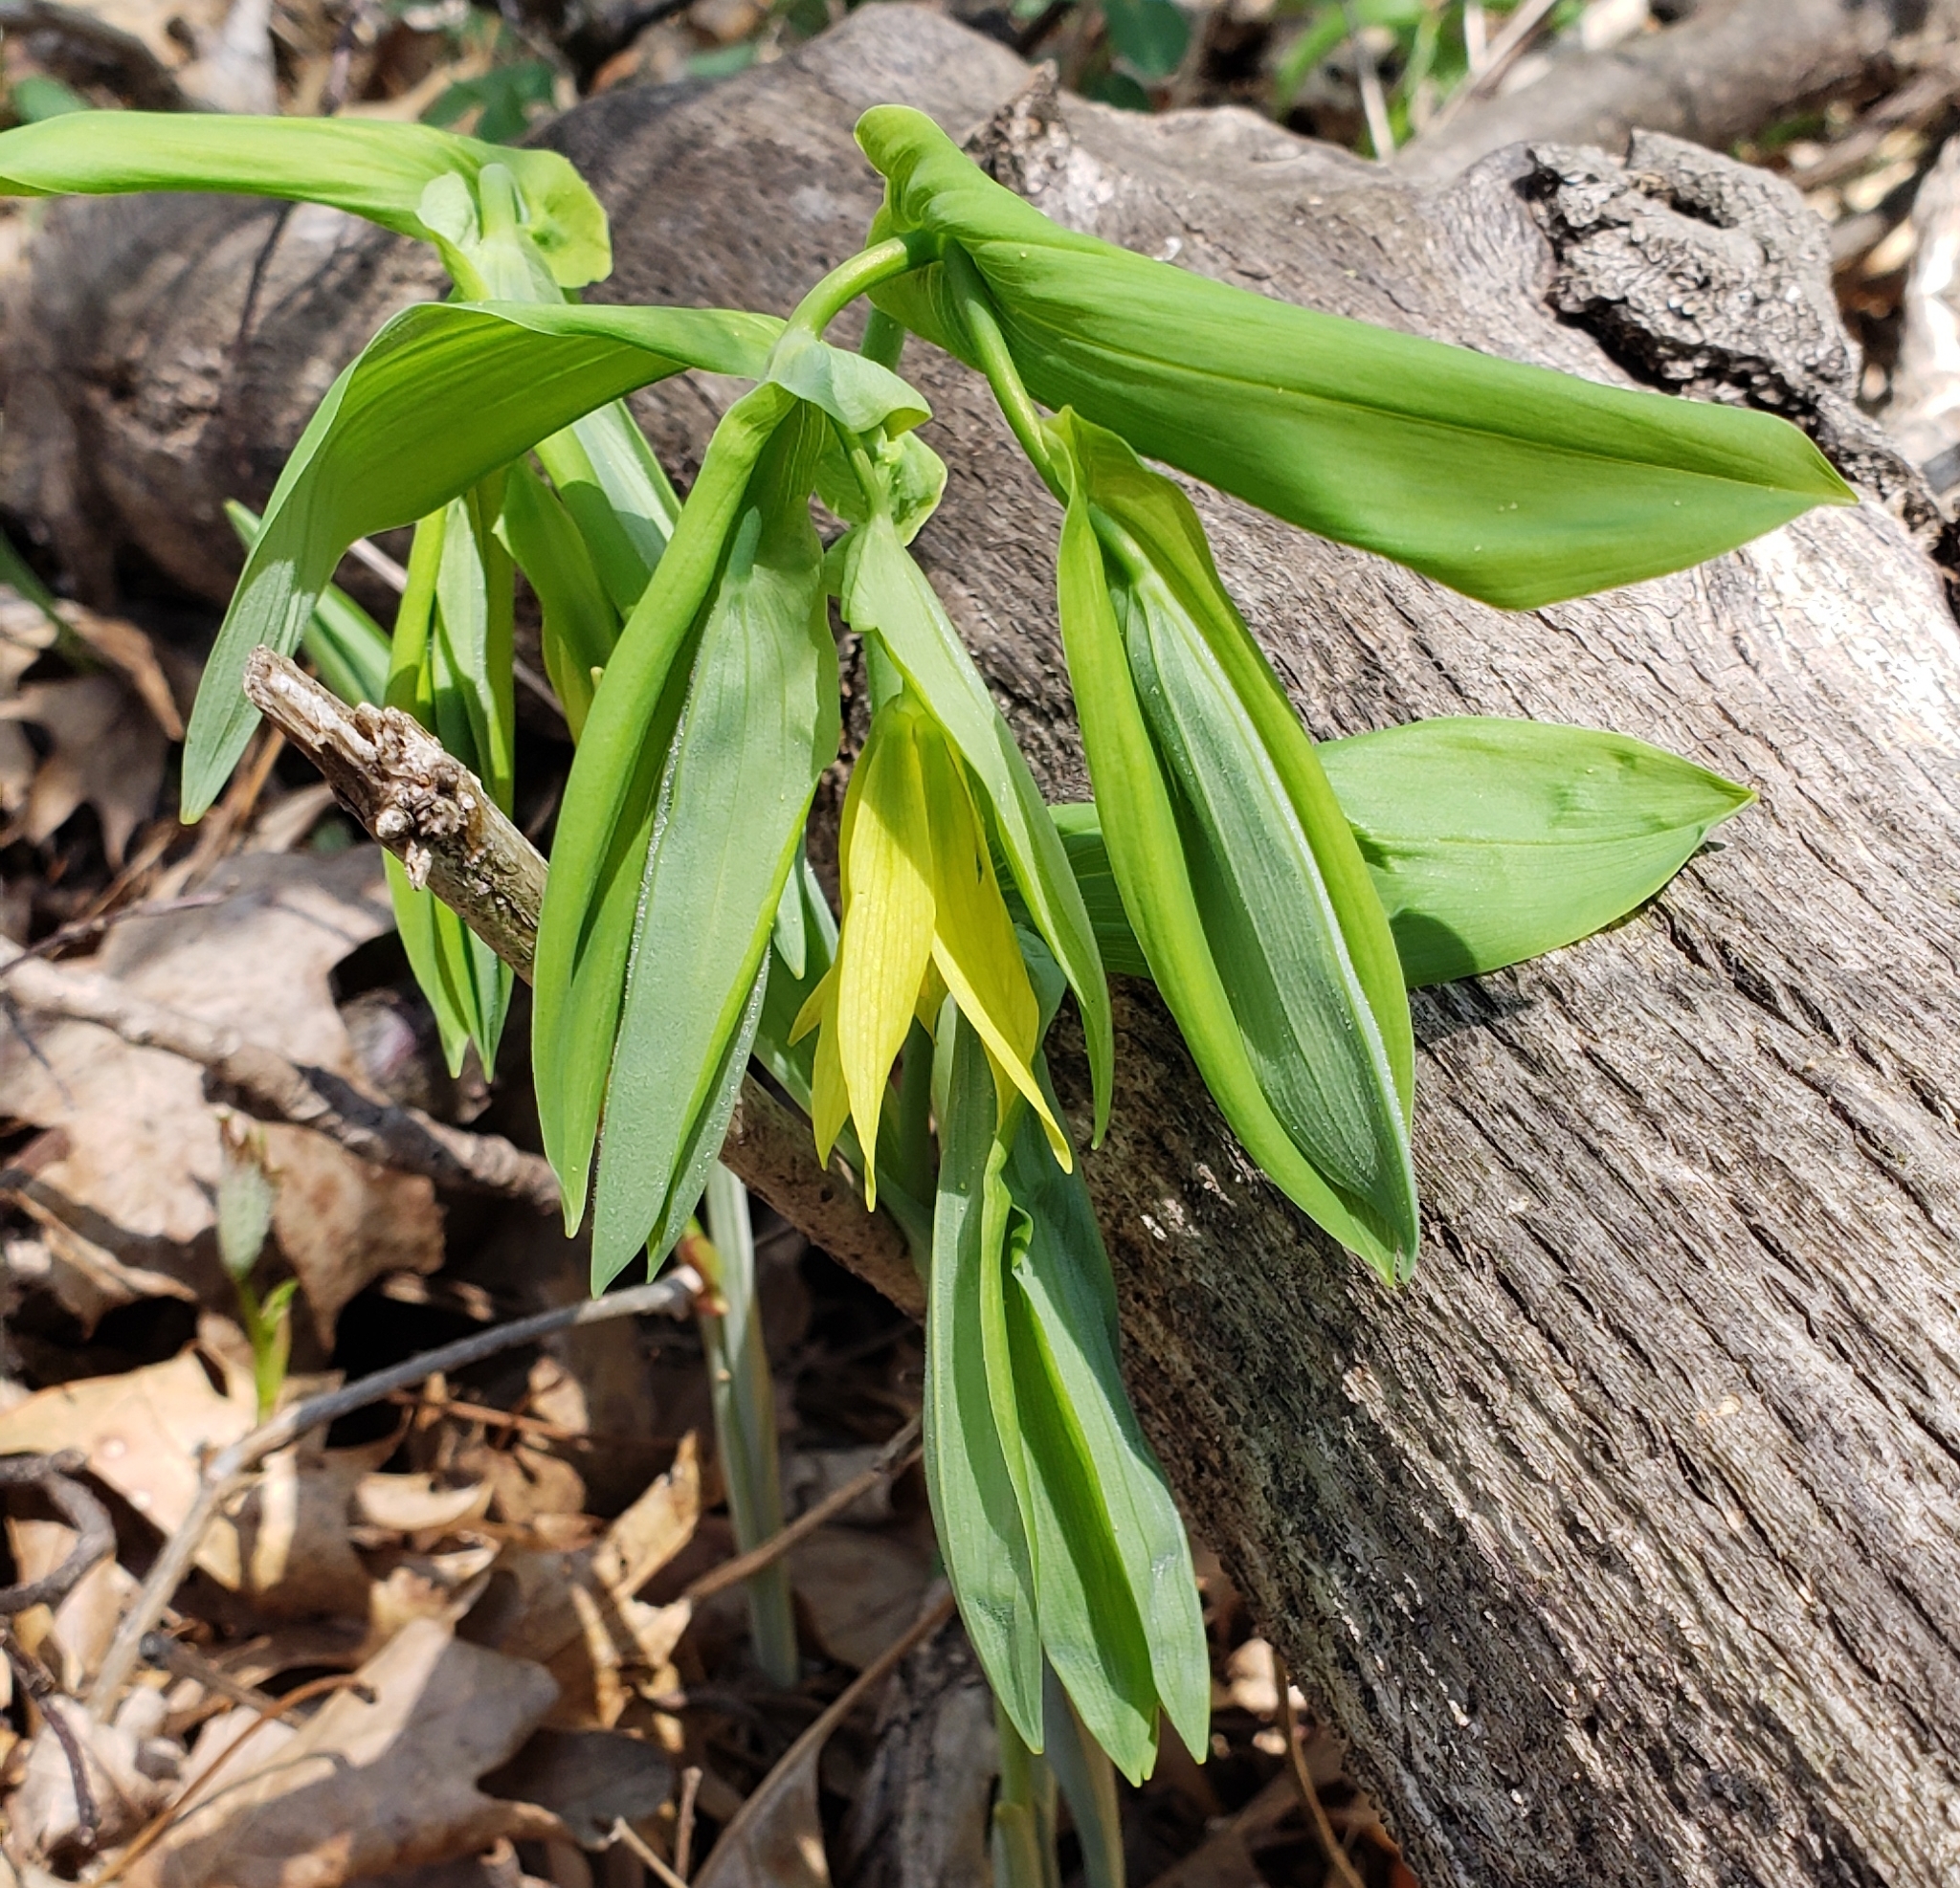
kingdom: Plantae
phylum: Tracheophyta
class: Liliopsida
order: Liliales
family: Colchicaceae
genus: Uvularia
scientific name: Uvularia grandiflora
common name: Bellwort
